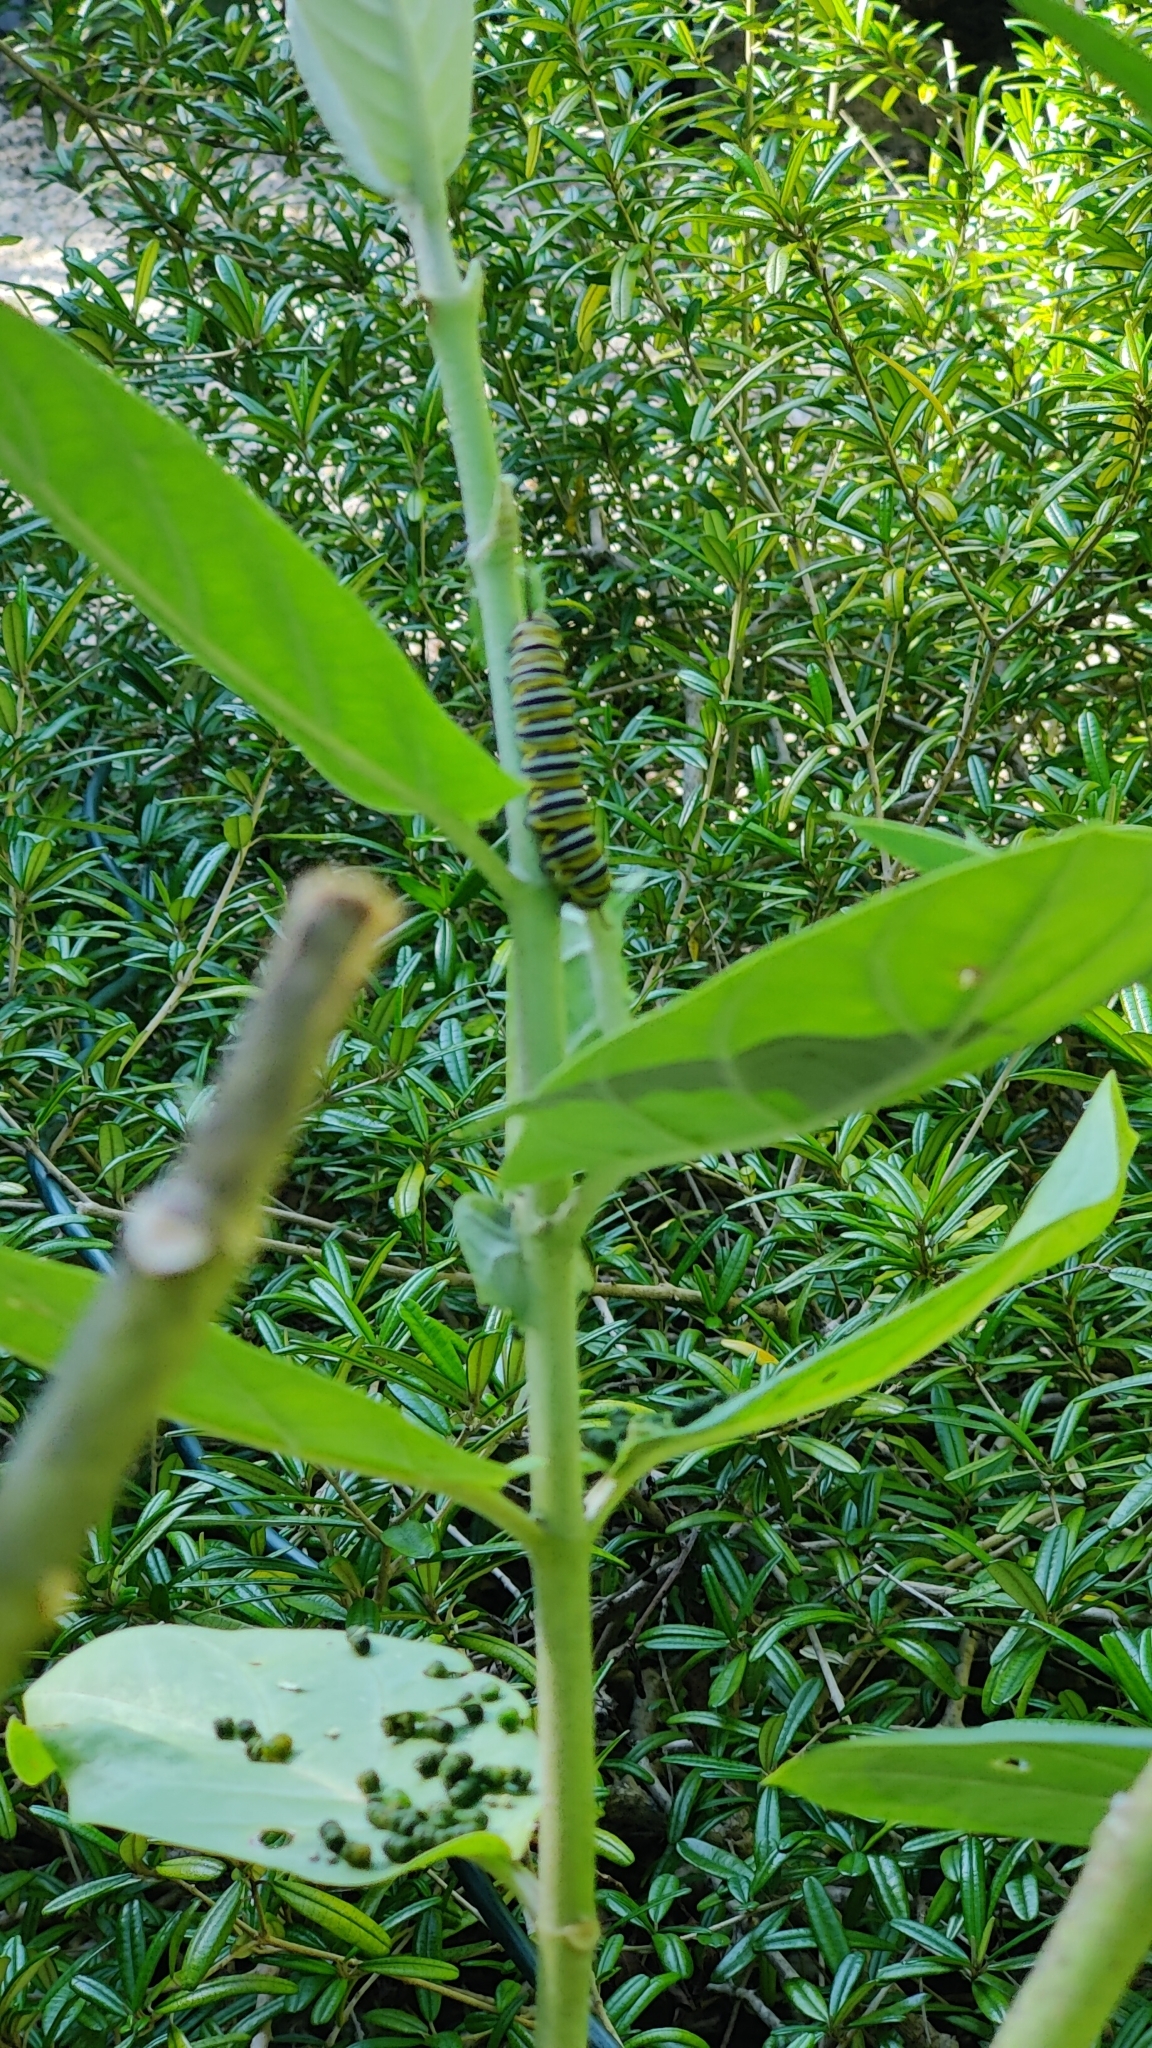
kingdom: Animalia
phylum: Arthropoda
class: Insecta
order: Lepidoptera
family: Nymphalidae
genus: Danaus
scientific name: Danaus plexippus
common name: Monarch
